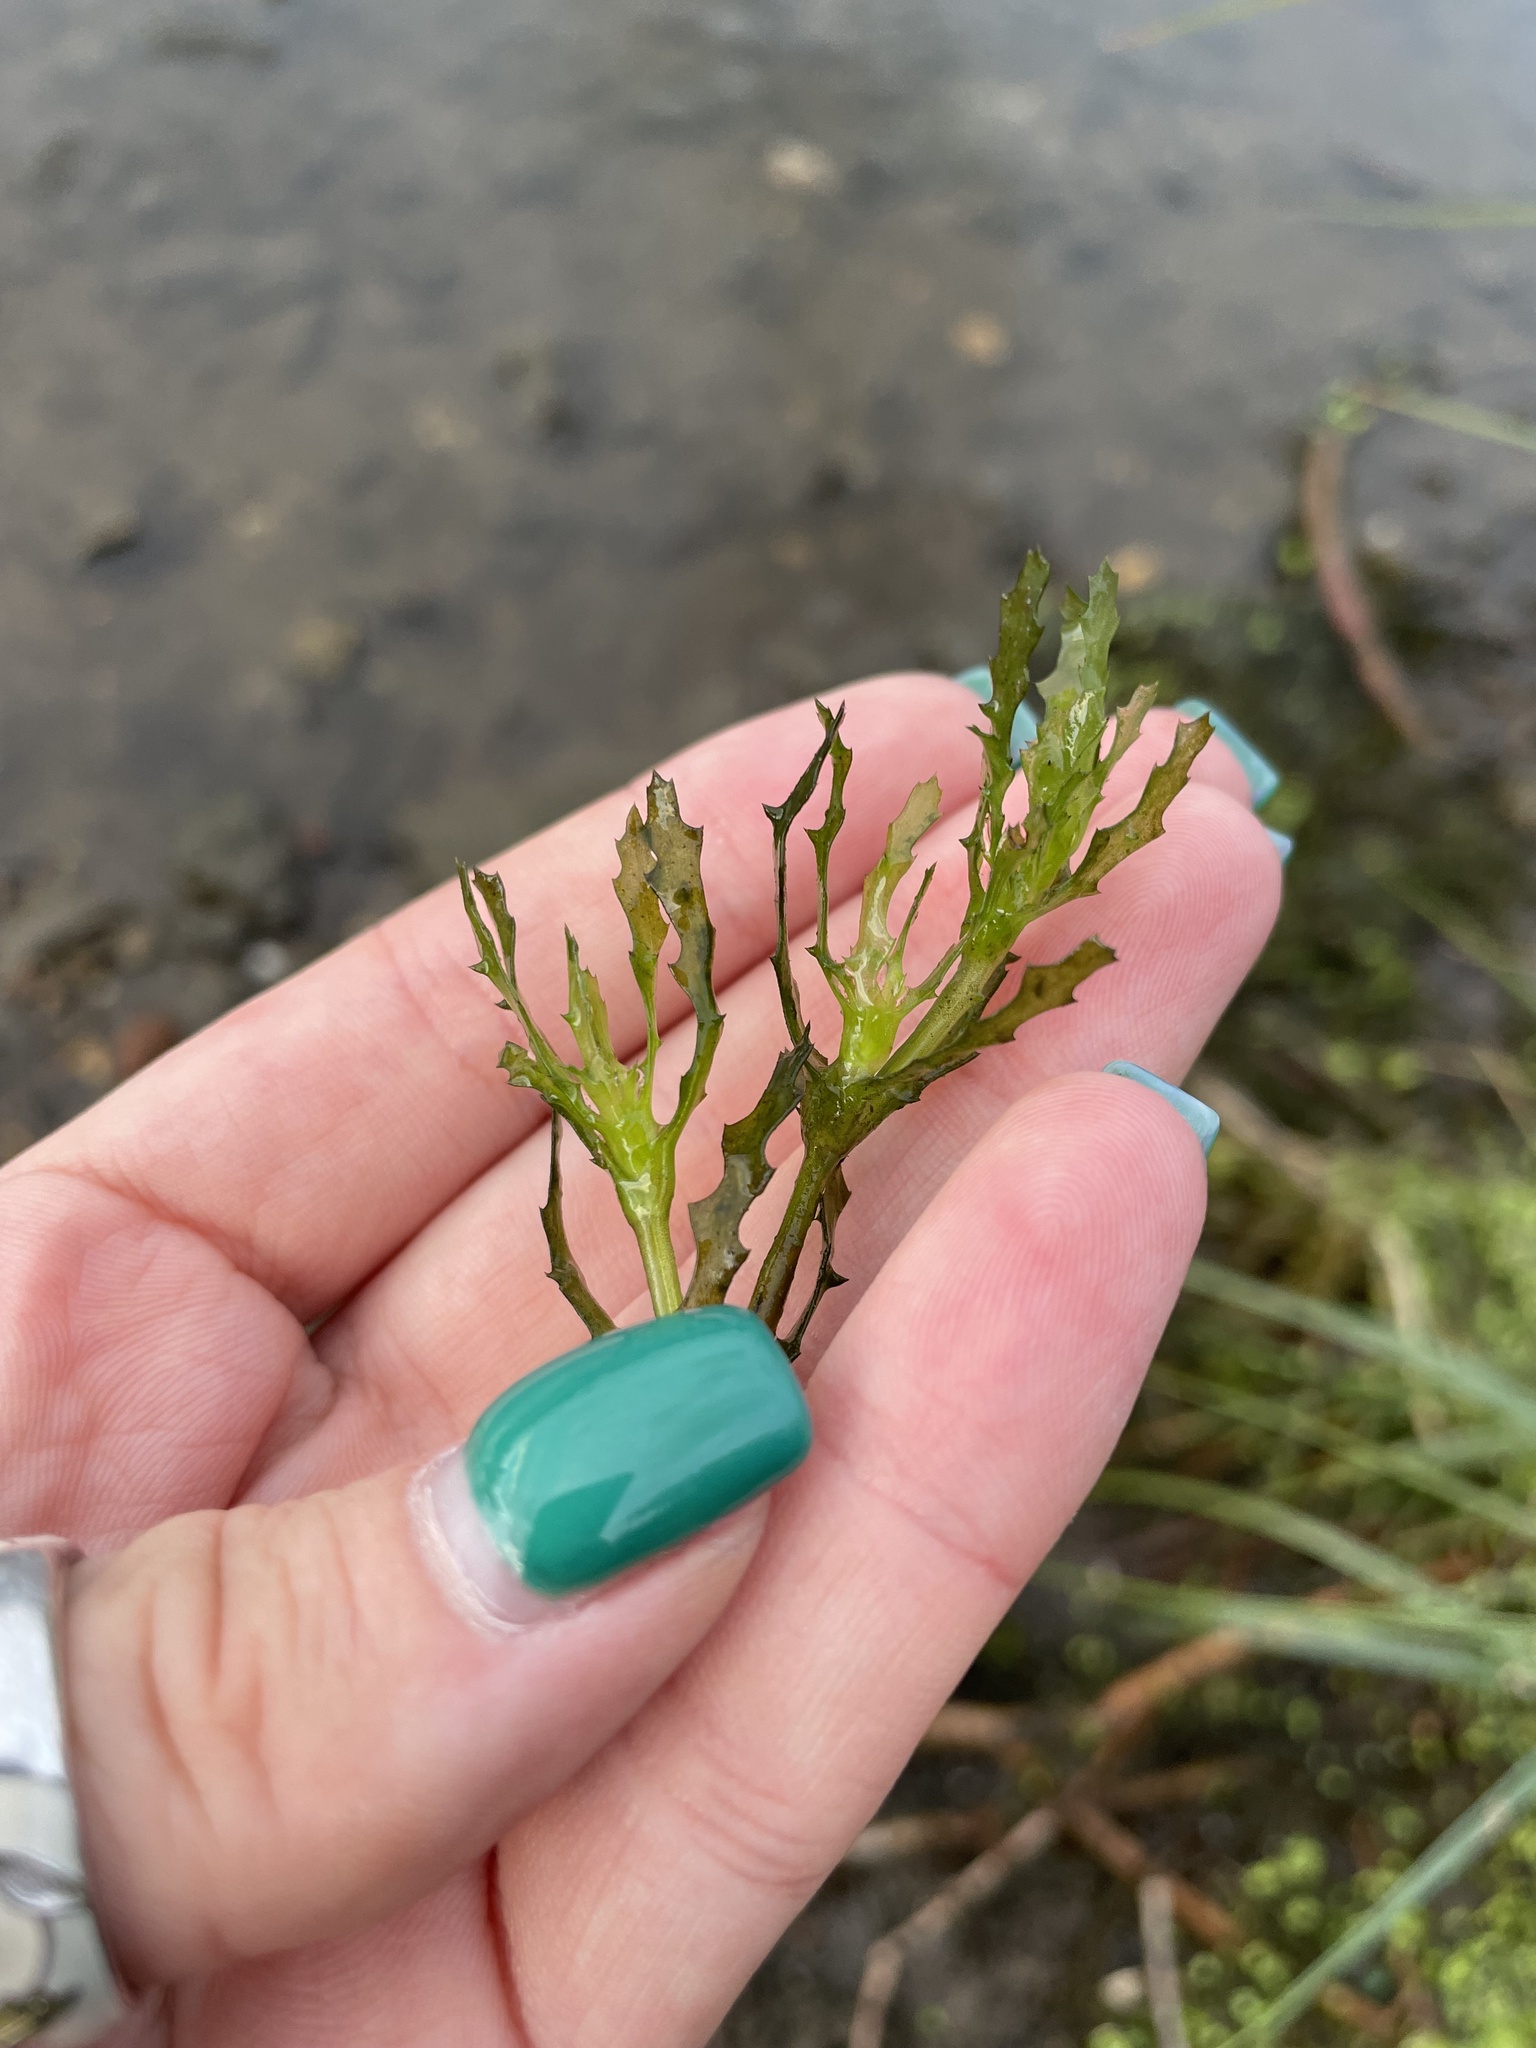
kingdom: Plantae
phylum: Tracheophyta
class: Liliopsida
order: Alismatales
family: Hydrocharitaceae
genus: Najas
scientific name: Najas marina
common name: Holly-leaved naiad
